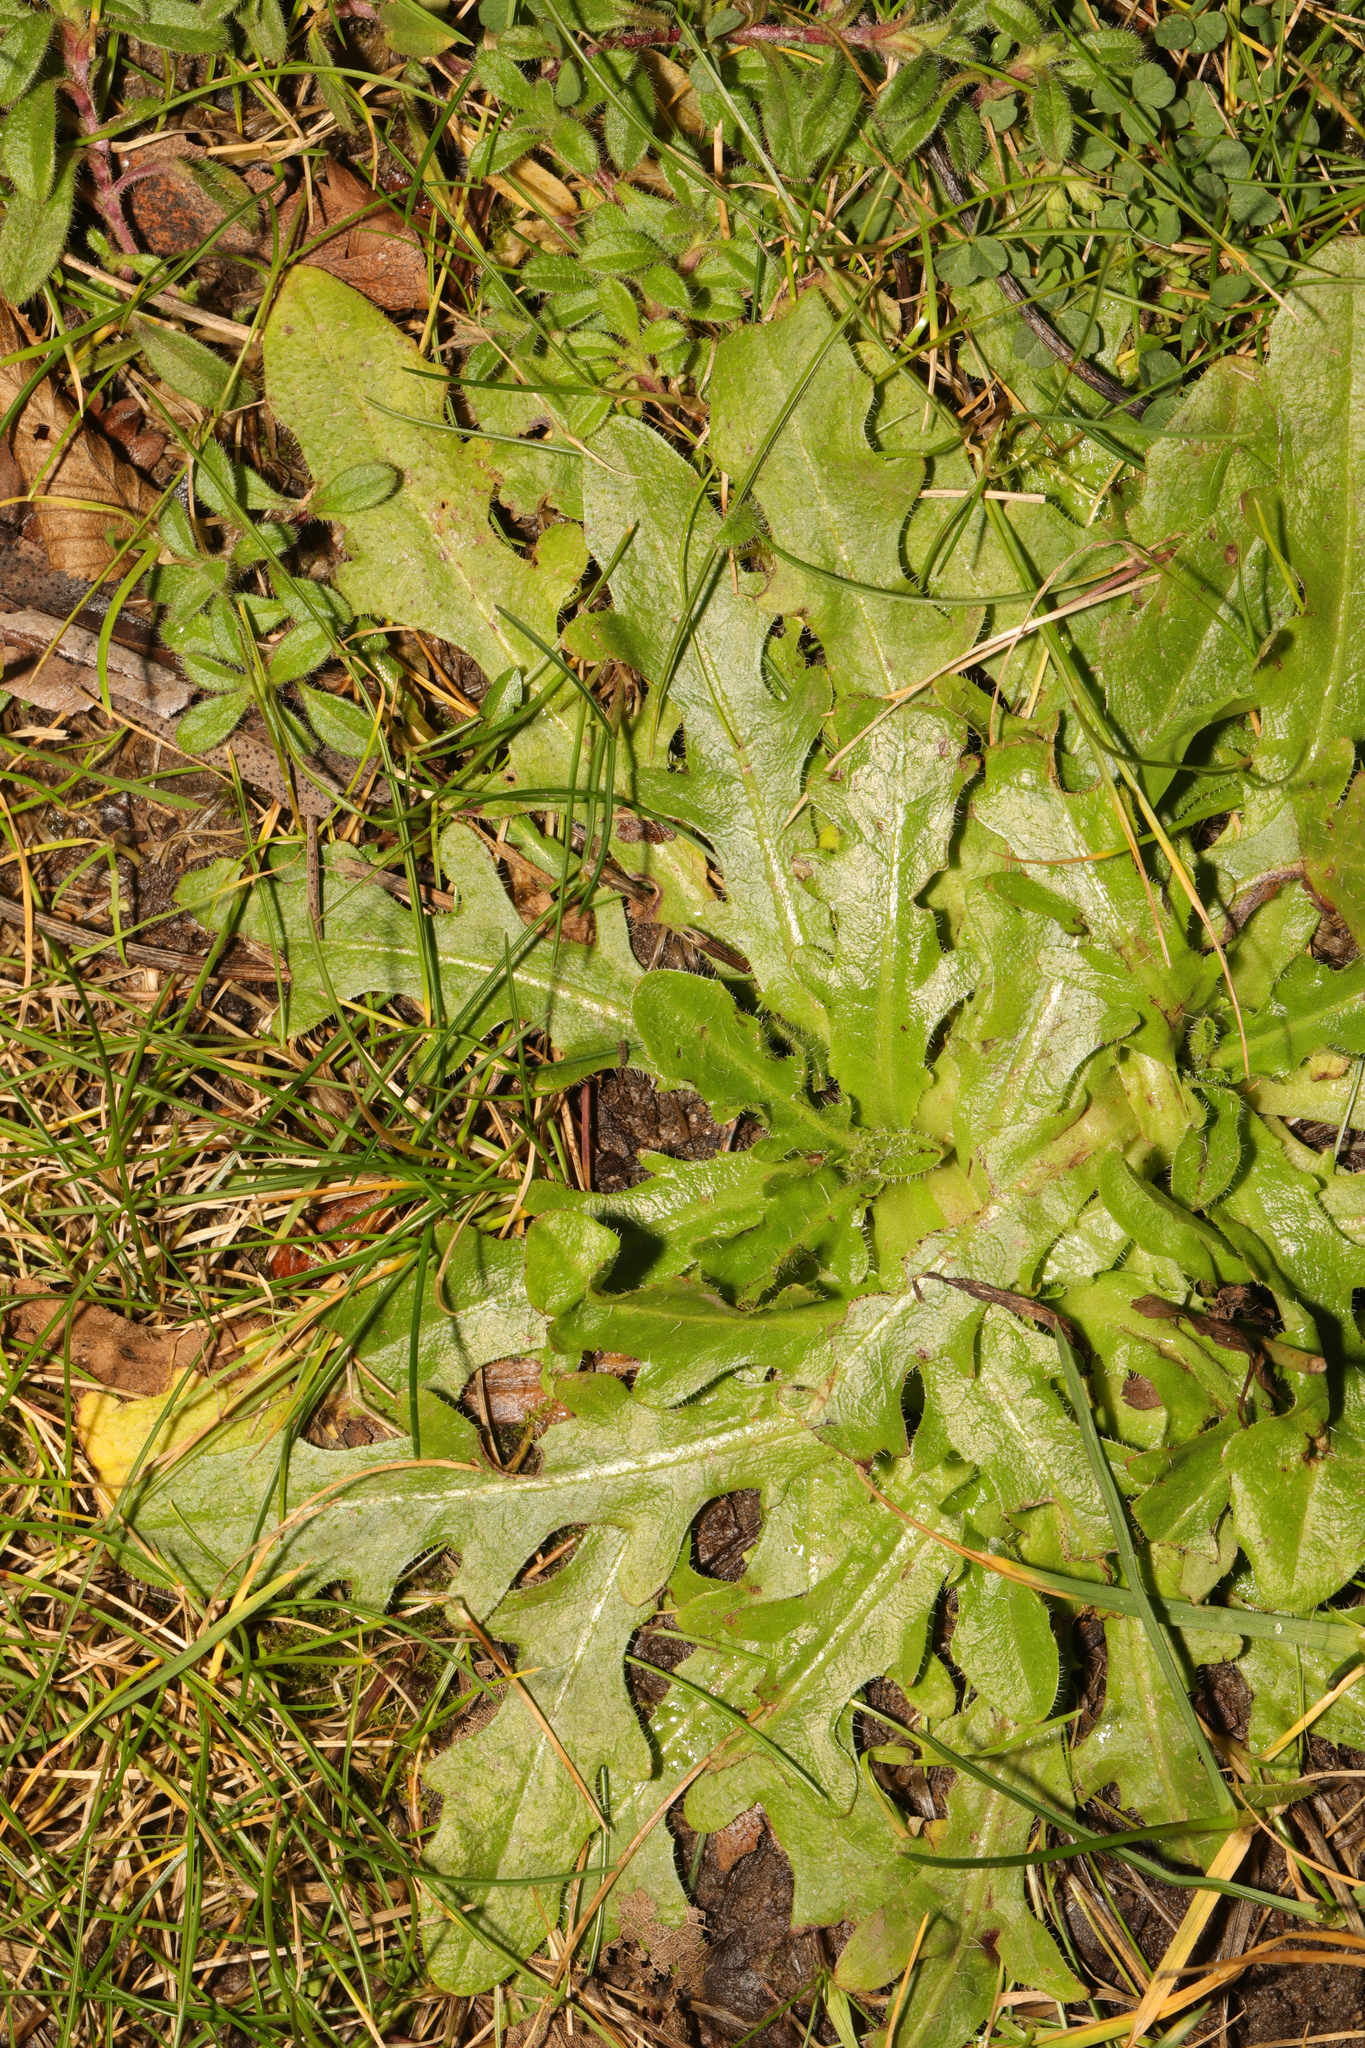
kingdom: Plantae
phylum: Tracheophyta
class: Magnoliopsida
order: Asterales
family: Asteraceae
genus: Hypochaeris
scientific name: Hypochaeris radicata
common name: Flatweed
